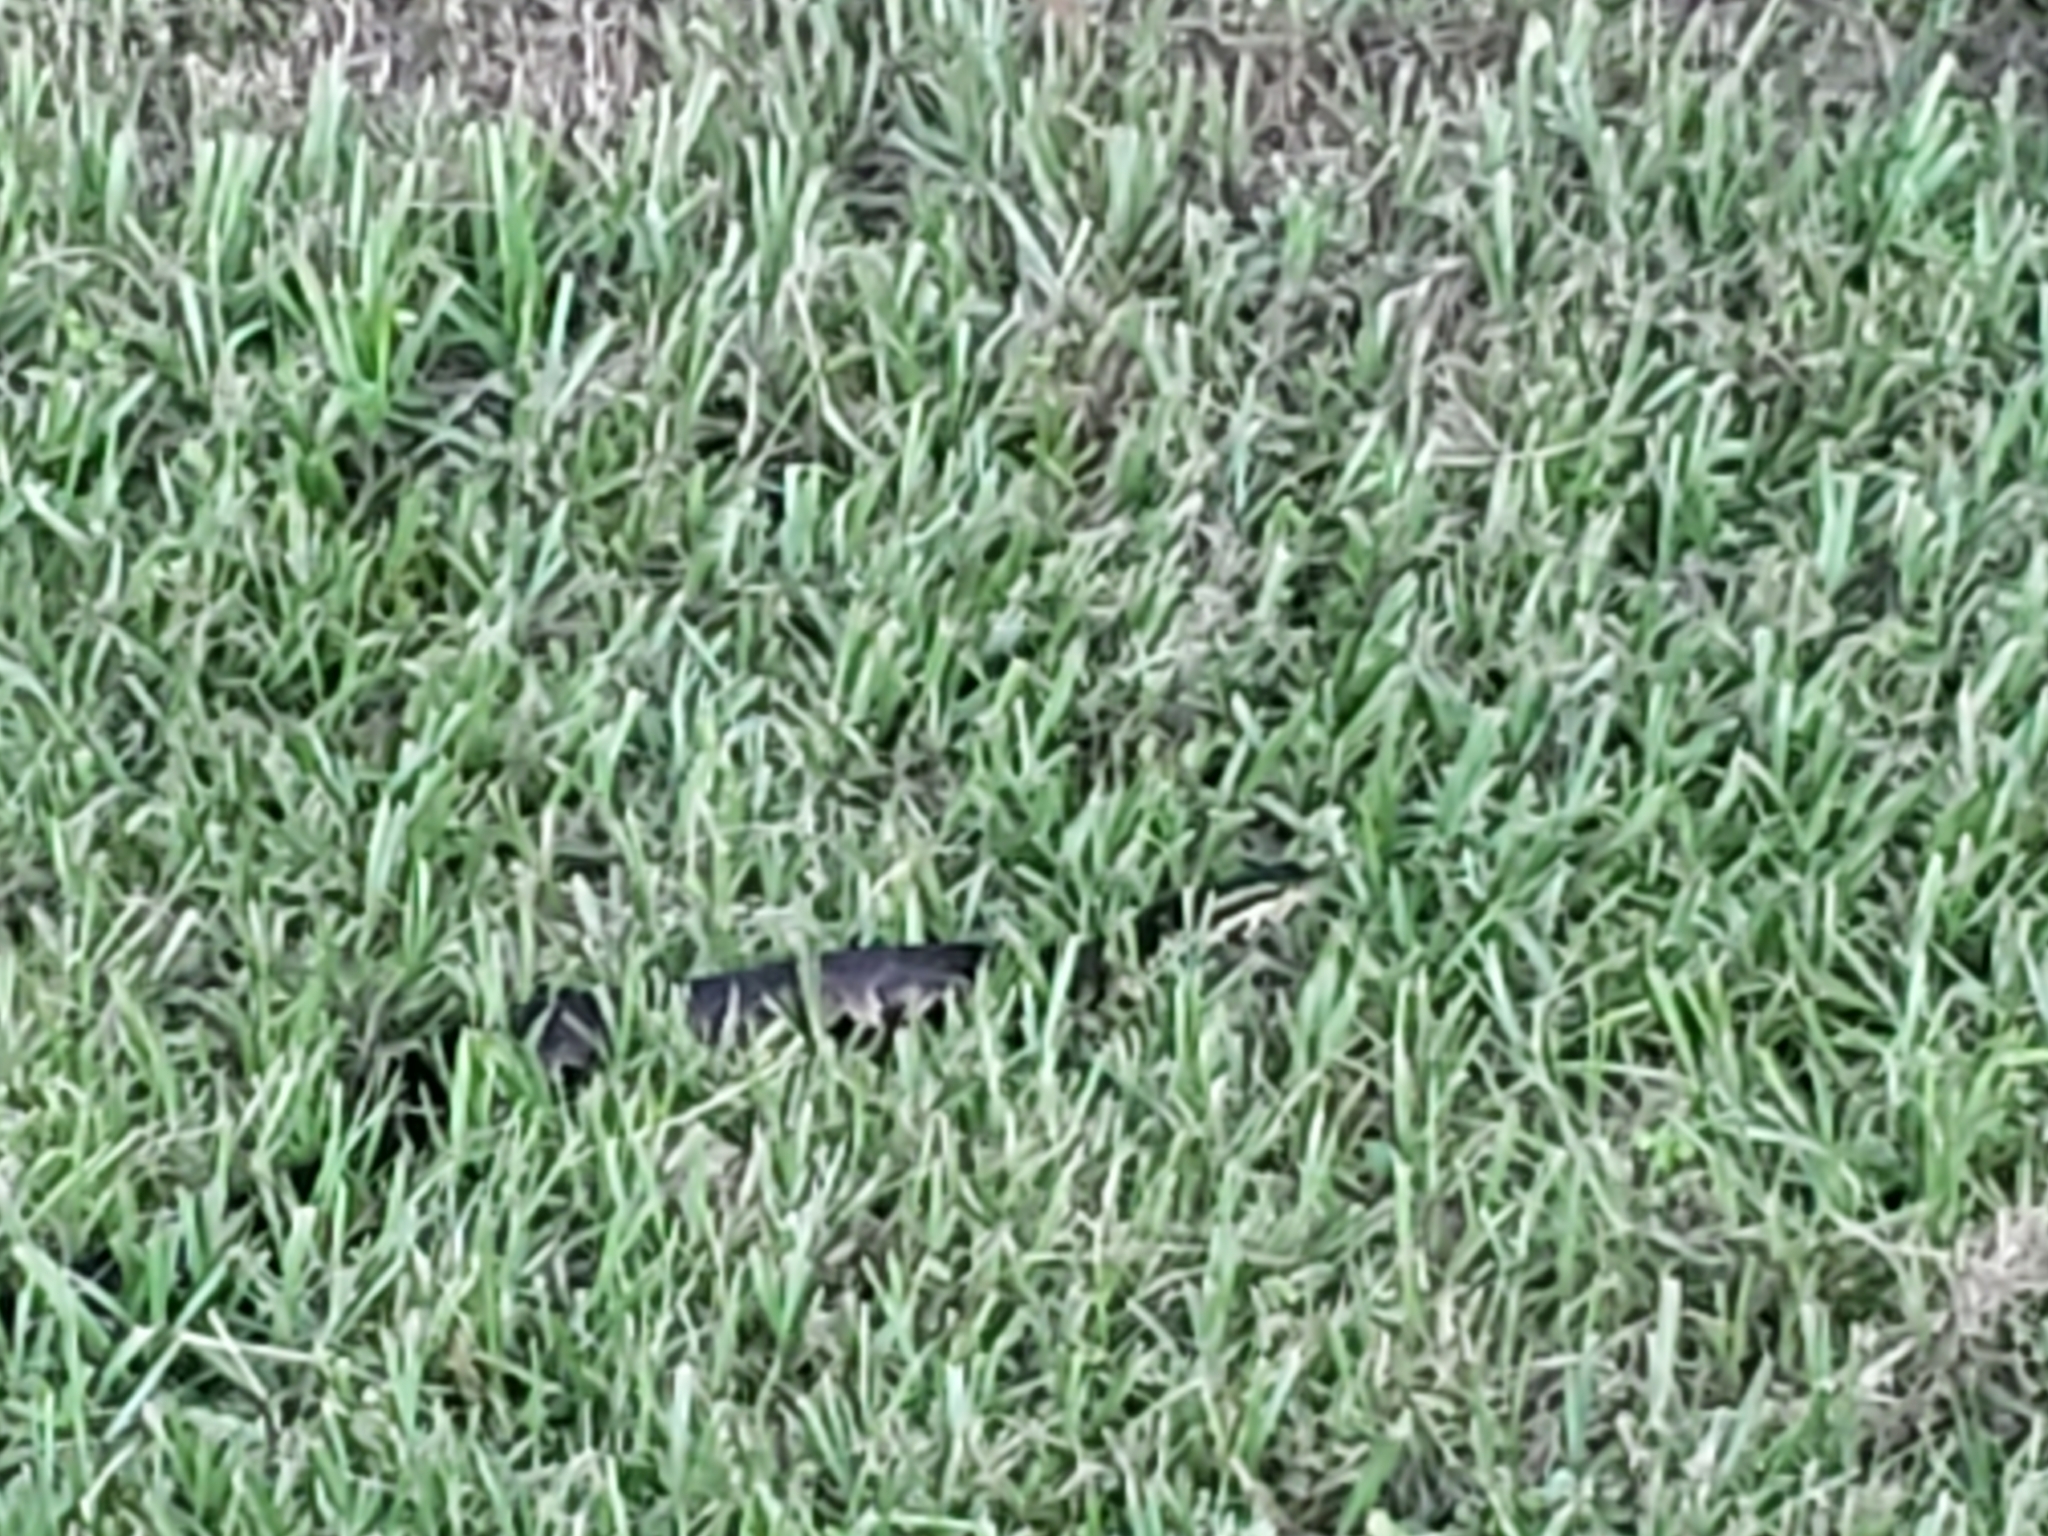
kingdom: Animalia
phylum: Chordata
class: Squamata
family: Viperidae
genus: Agkistrodon
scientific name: Agkistrodon conanti
